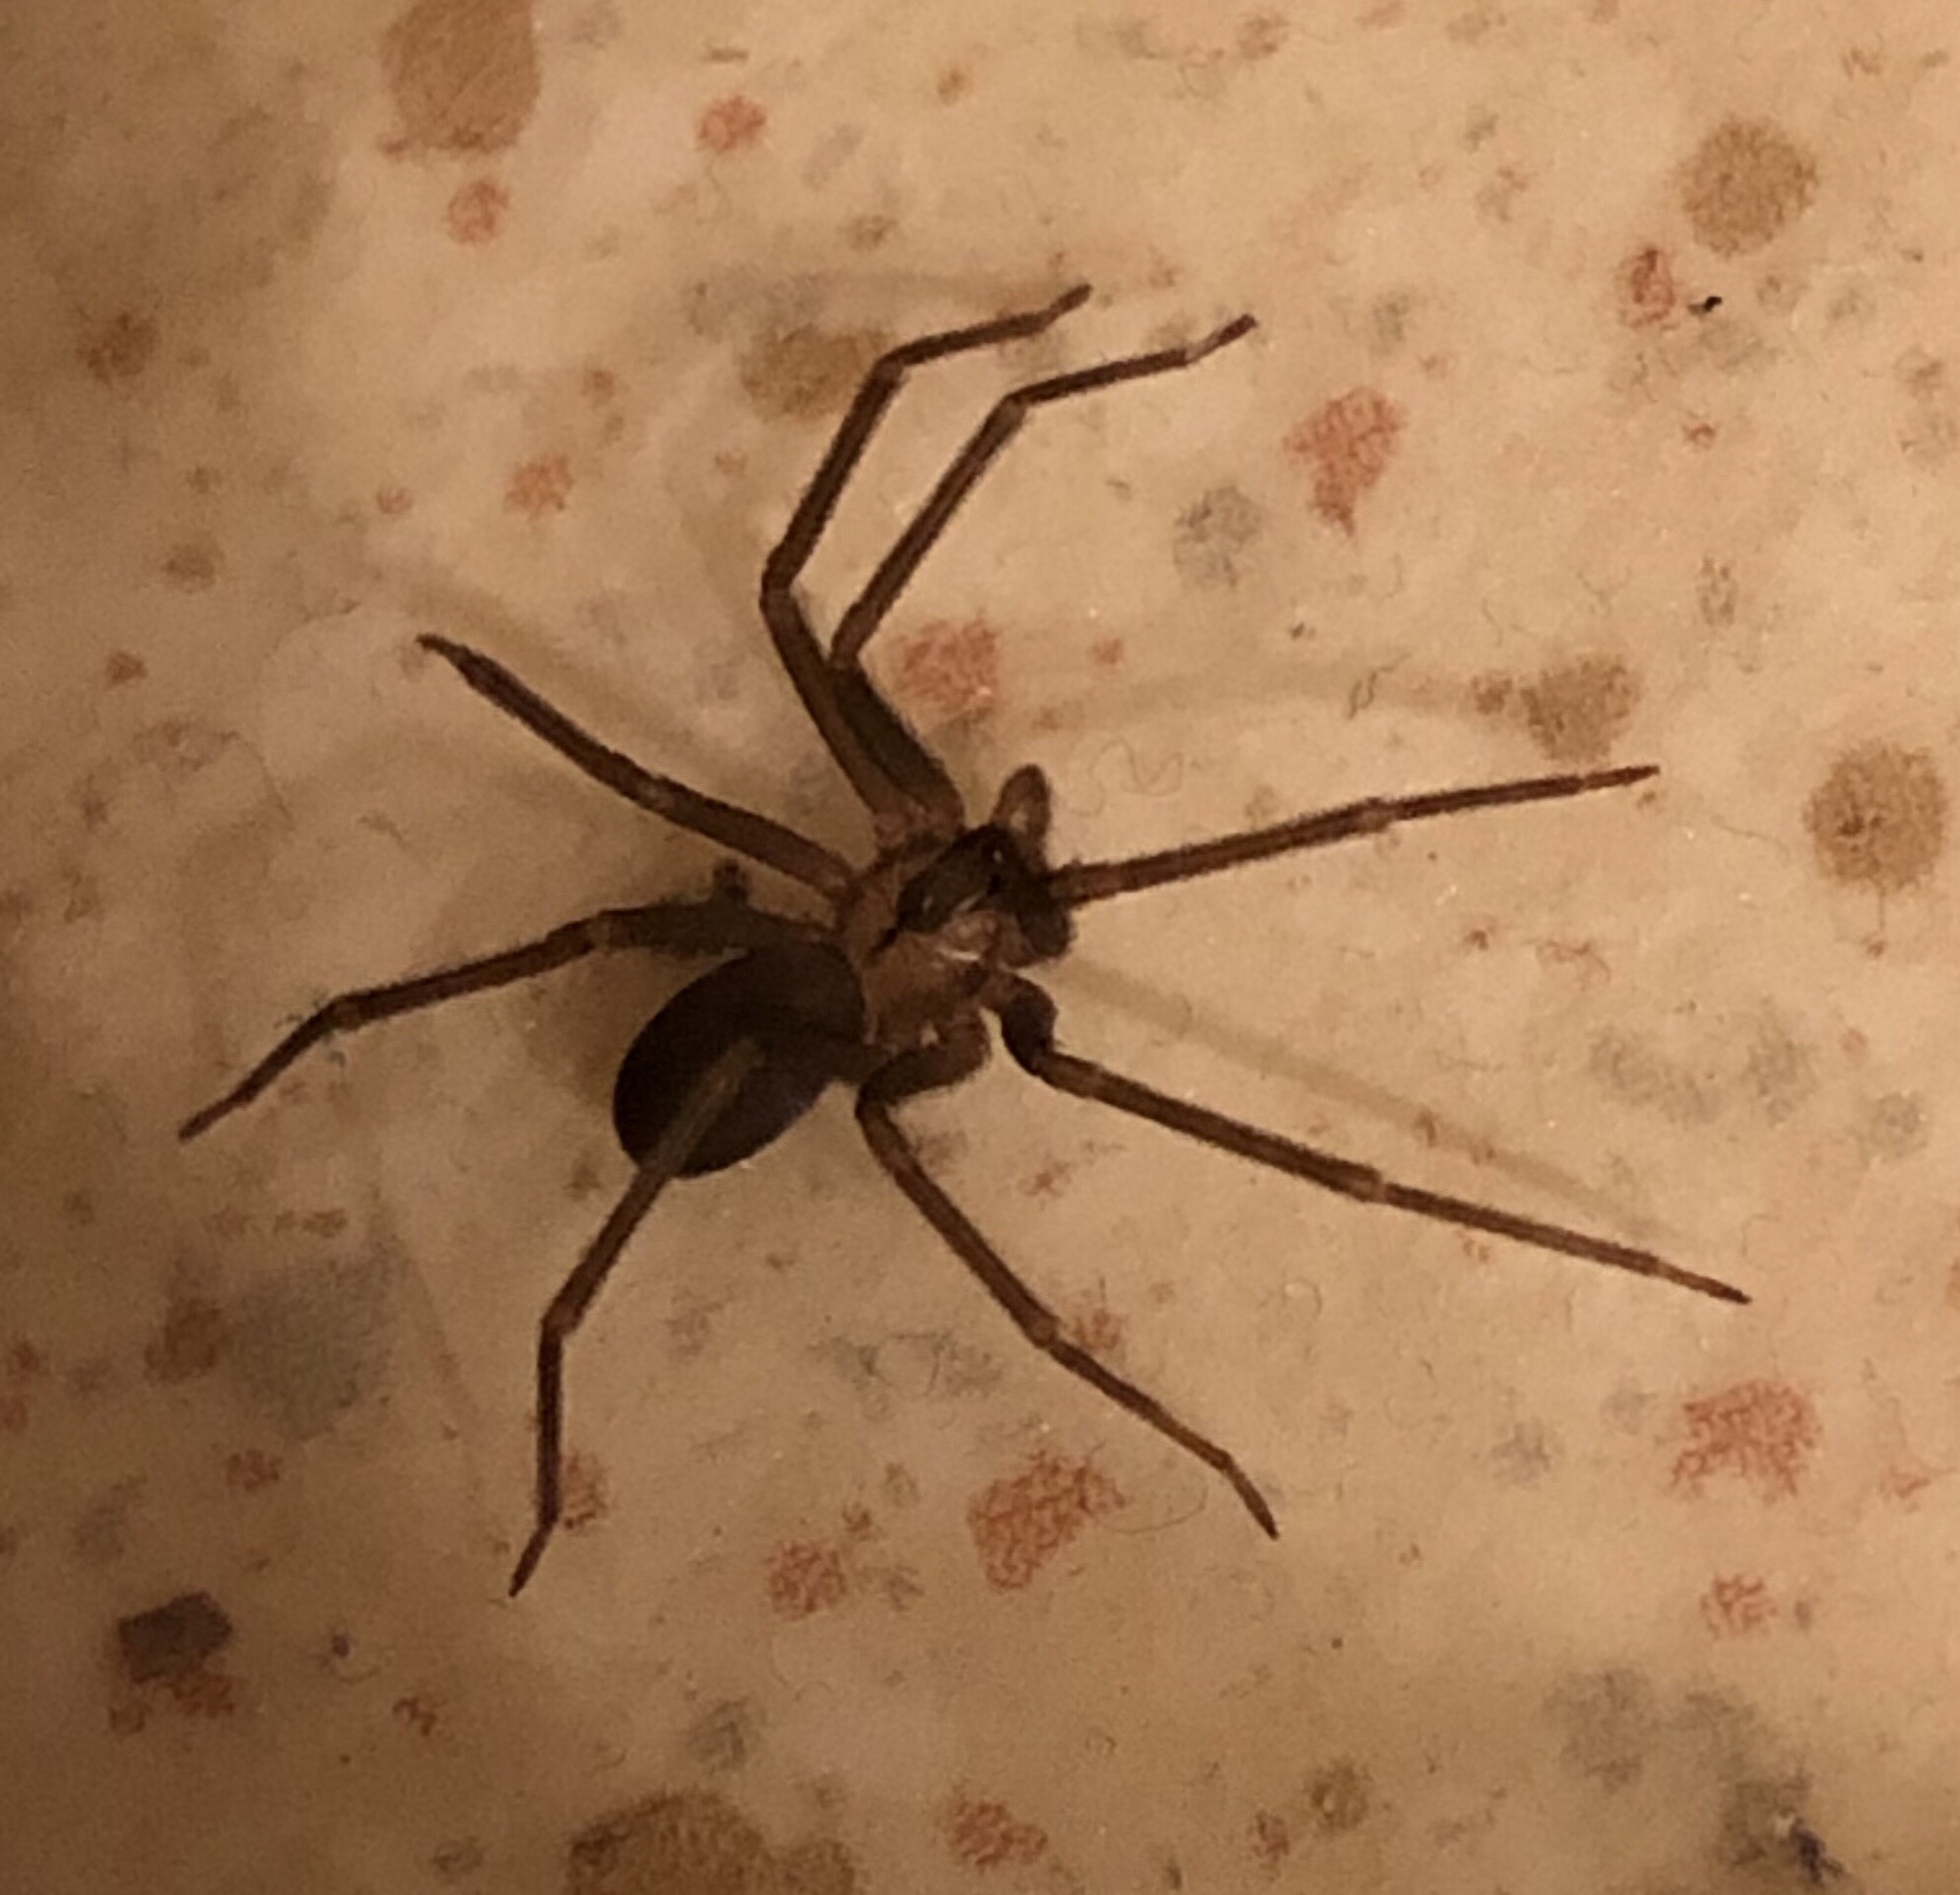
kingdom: Animalia
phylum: Arthropoda
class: Arachnida
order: Araneae
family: Sicariidae
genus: Loxosceles
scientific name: Loxosceles reclusa
